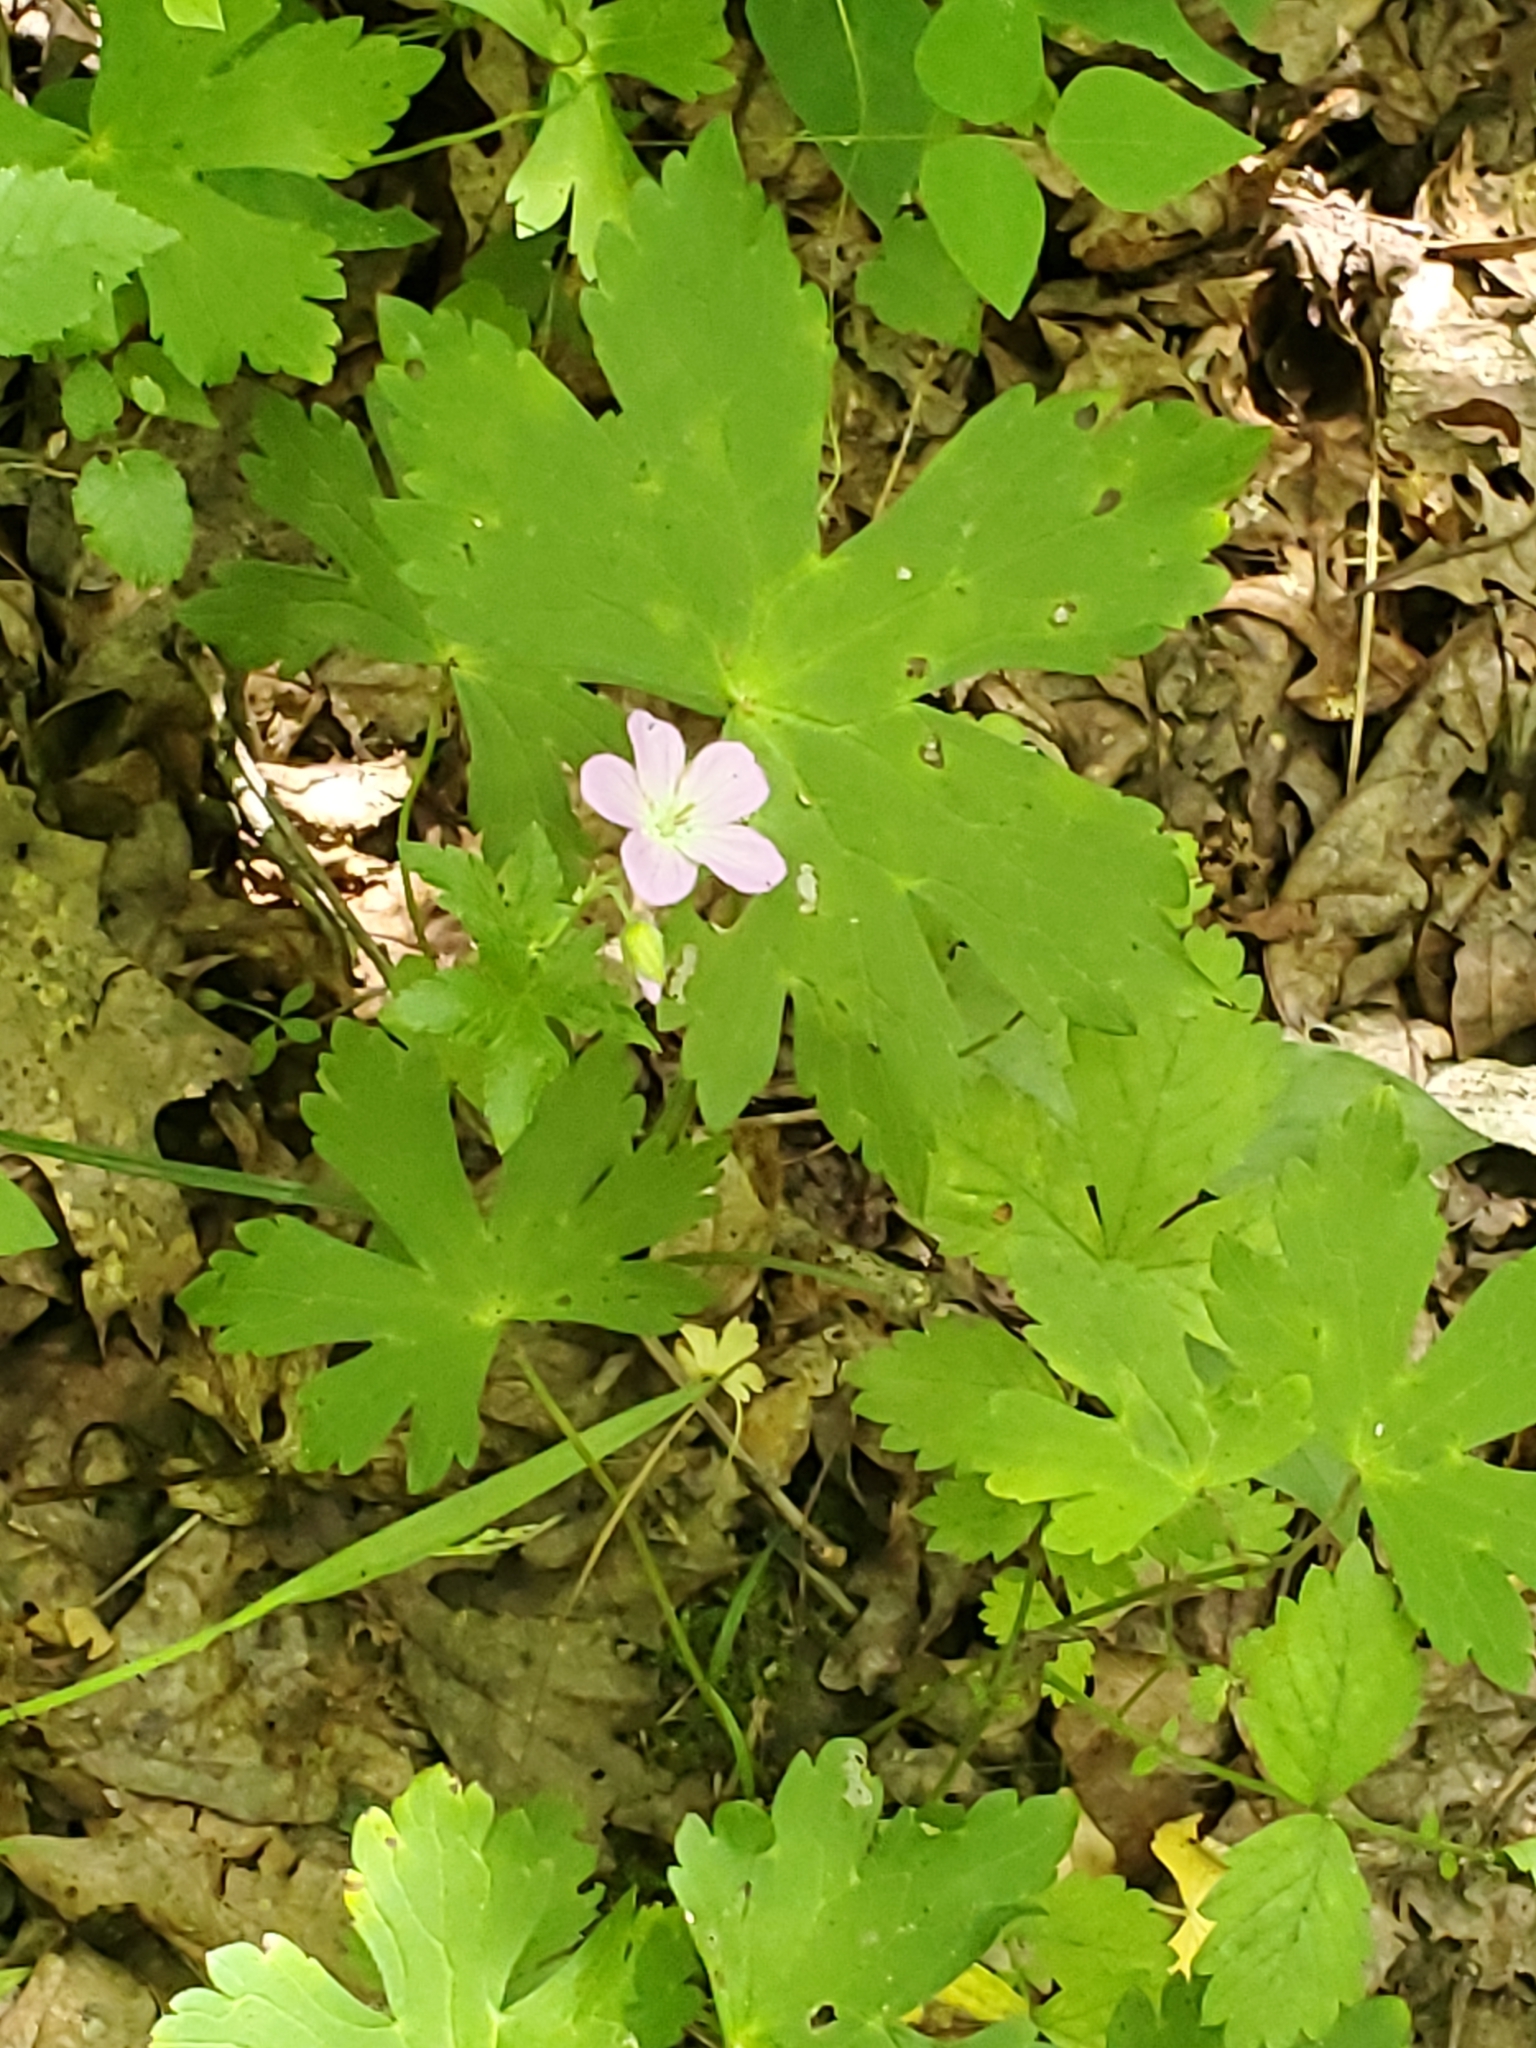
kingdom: Plantae
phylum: Tracheophyta
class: Magnoliopsida
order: Geraniales
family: Geraniaceae
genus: Geranium
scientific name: Geranium maculatum
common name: Spotted geranium
